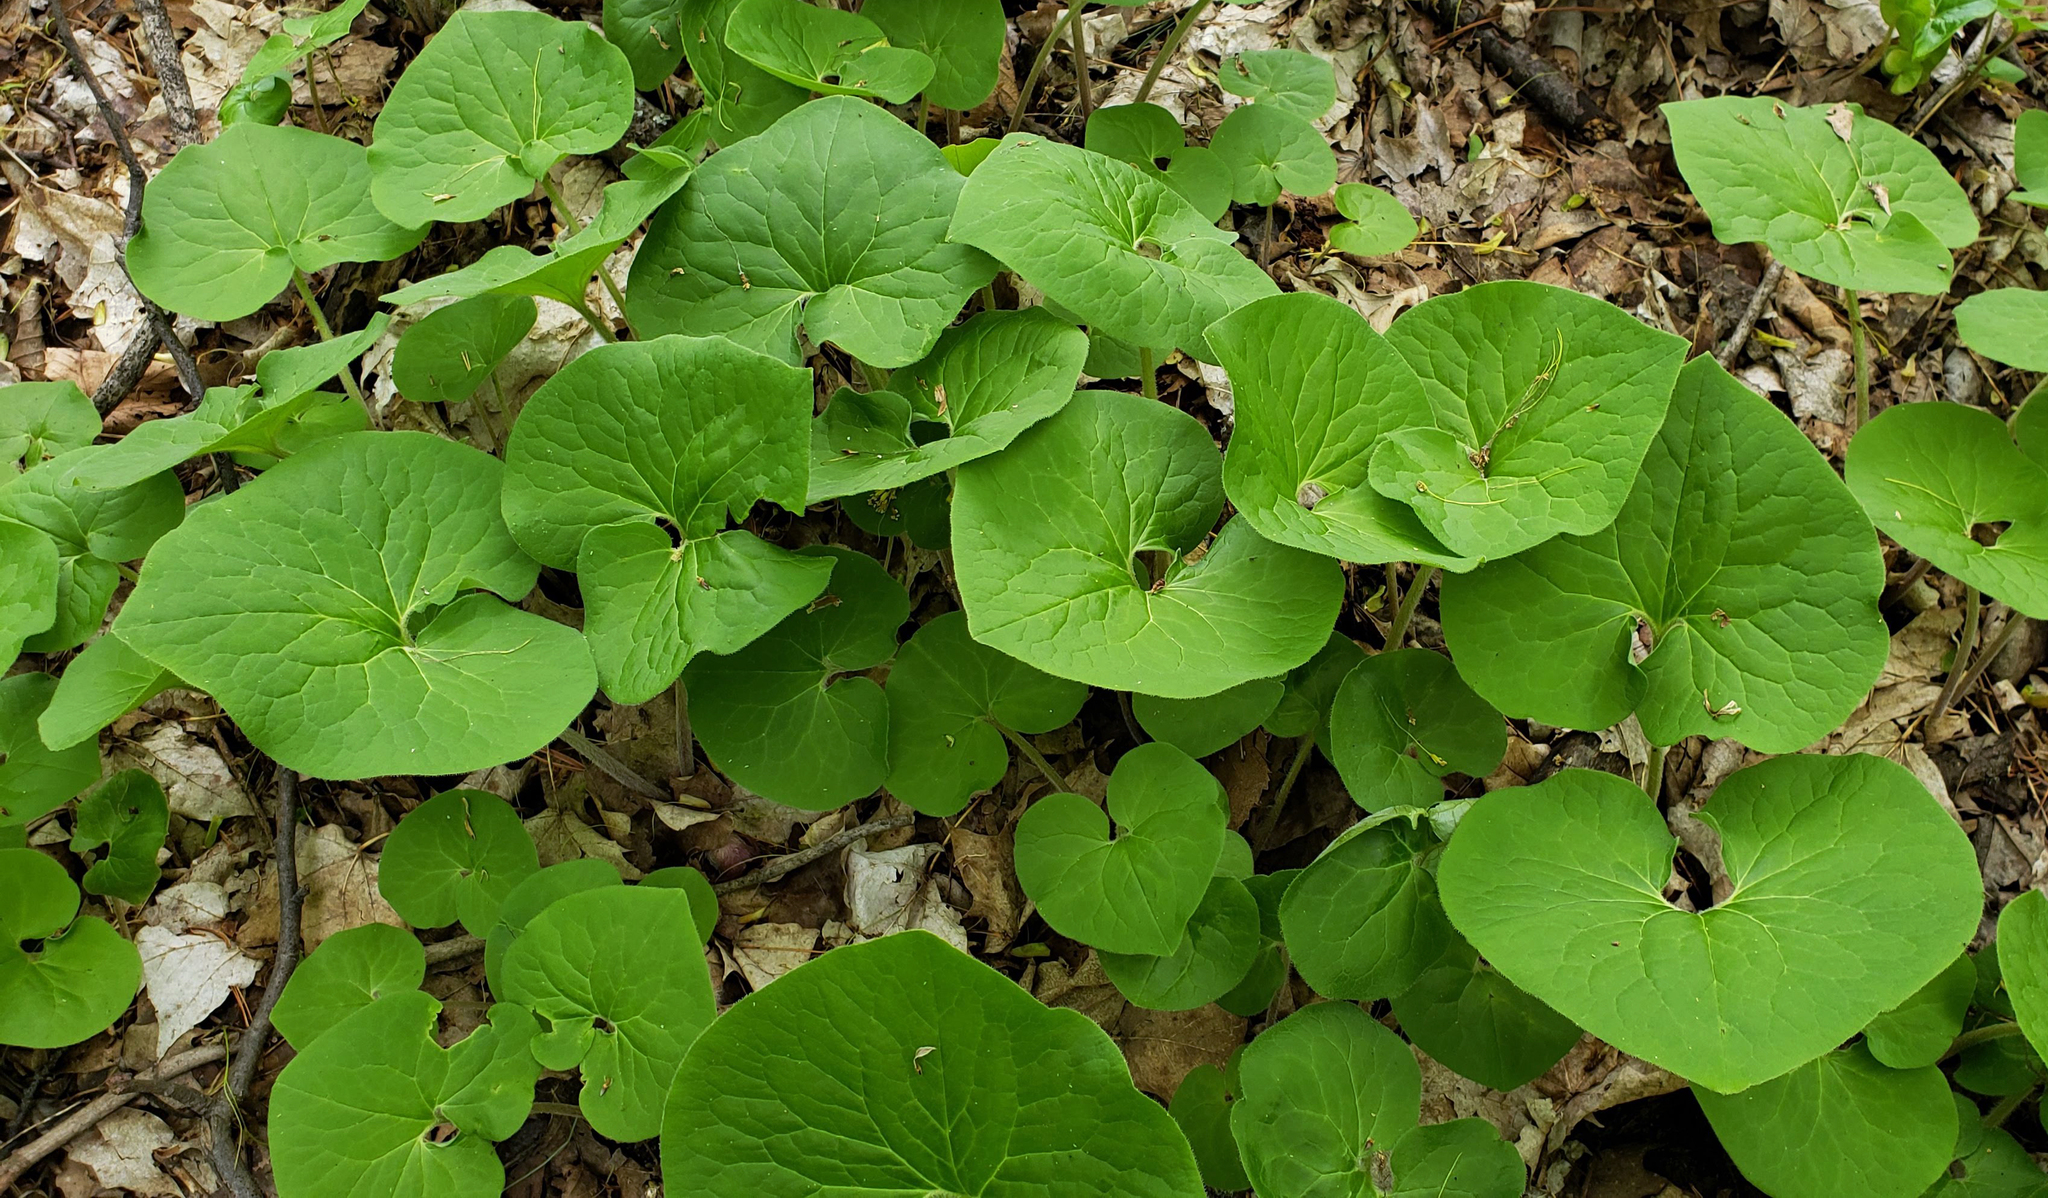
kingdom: Plantae
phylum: Tracheophyta
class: Magnoliopsida
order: Piperales
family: Aristolochiaceae
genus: Asarum
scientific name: Asarum canadense
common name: Wild ginger
